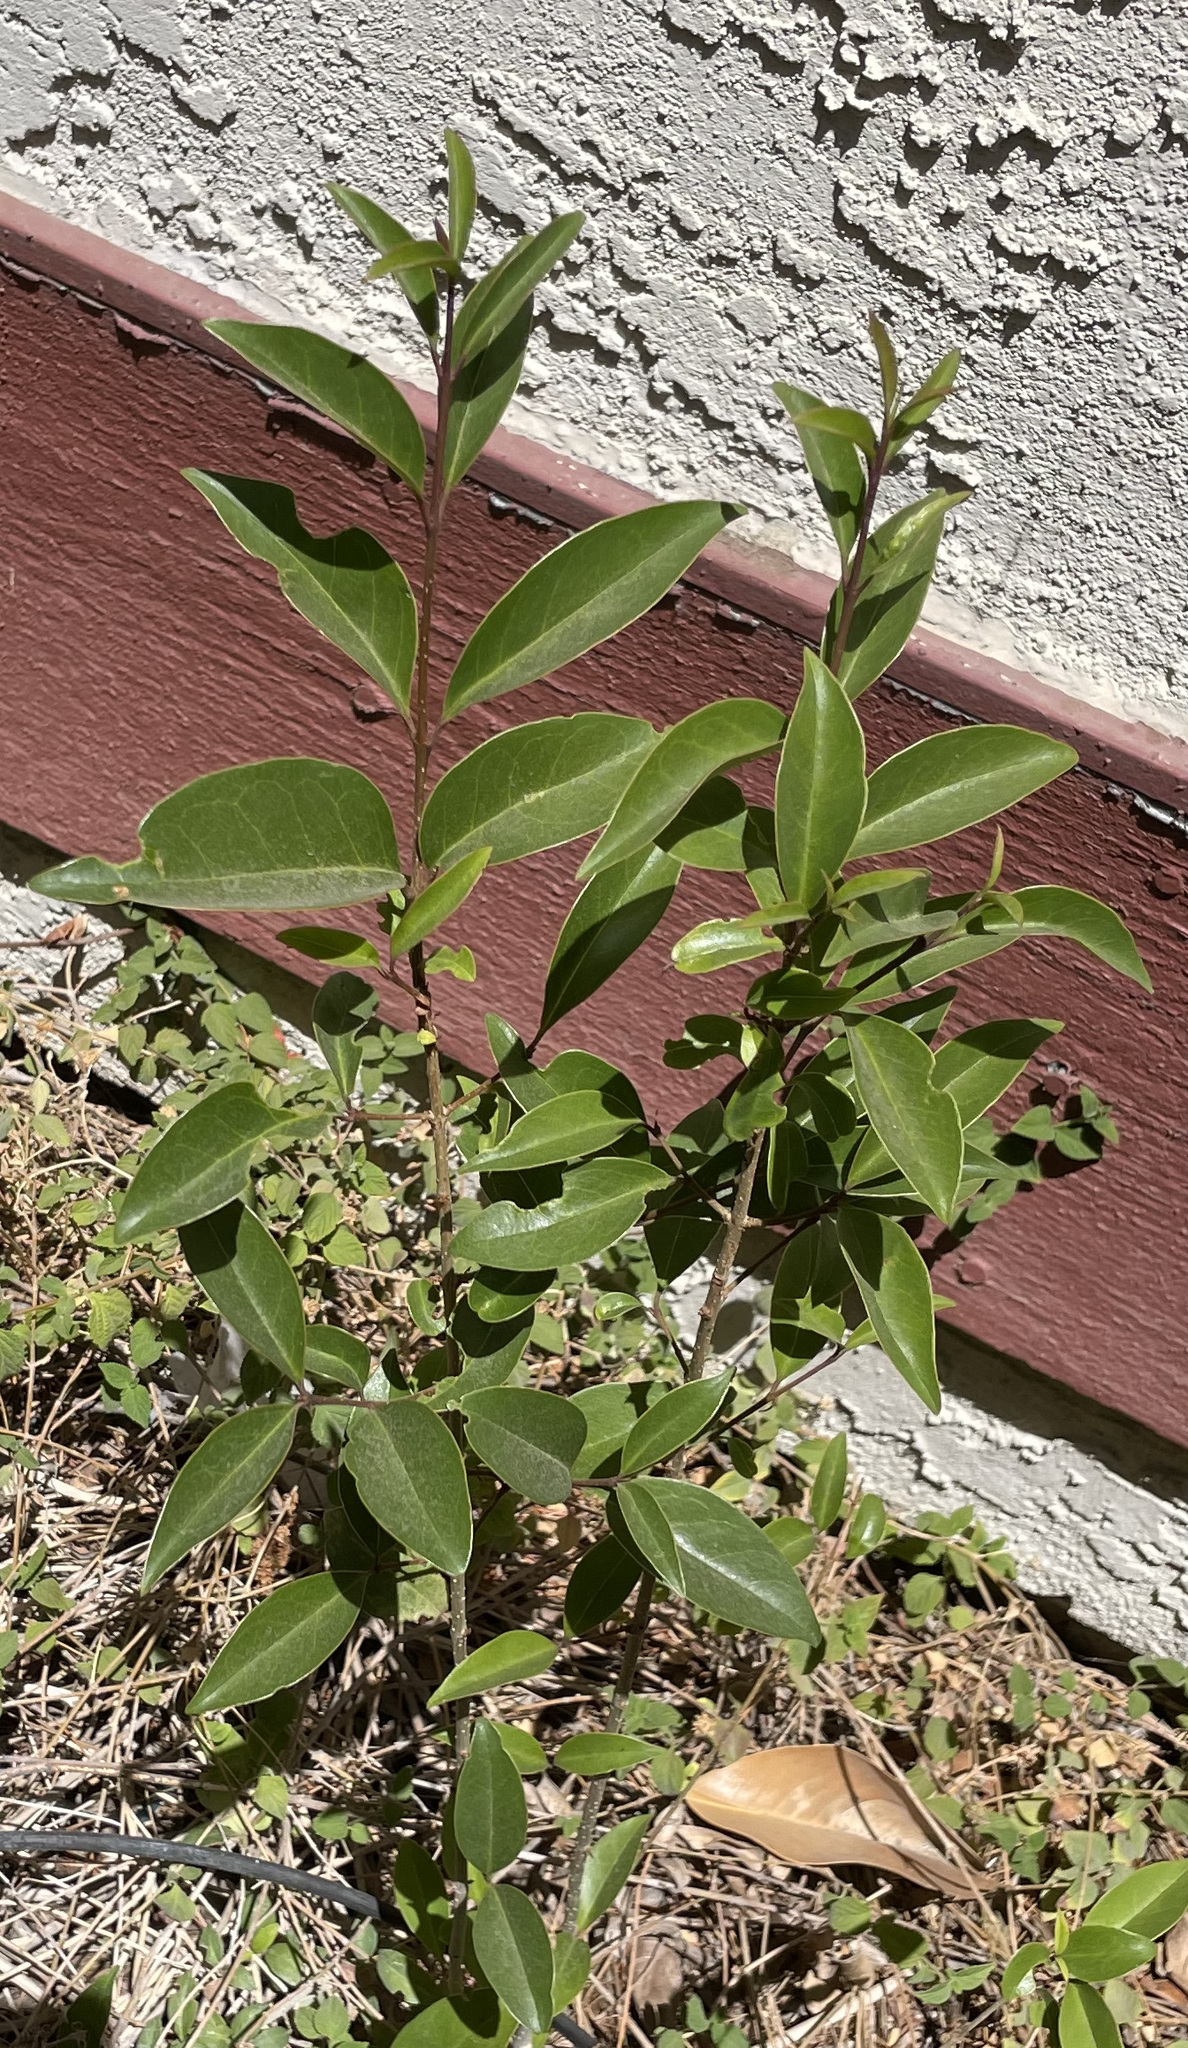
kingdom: Plantae
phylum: Tracheophyta
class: Magnoliopsida
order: Lamiales
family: Oleaceae
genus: Ligustrum
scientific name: Ligustrum lucidum
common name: Glossy privet
